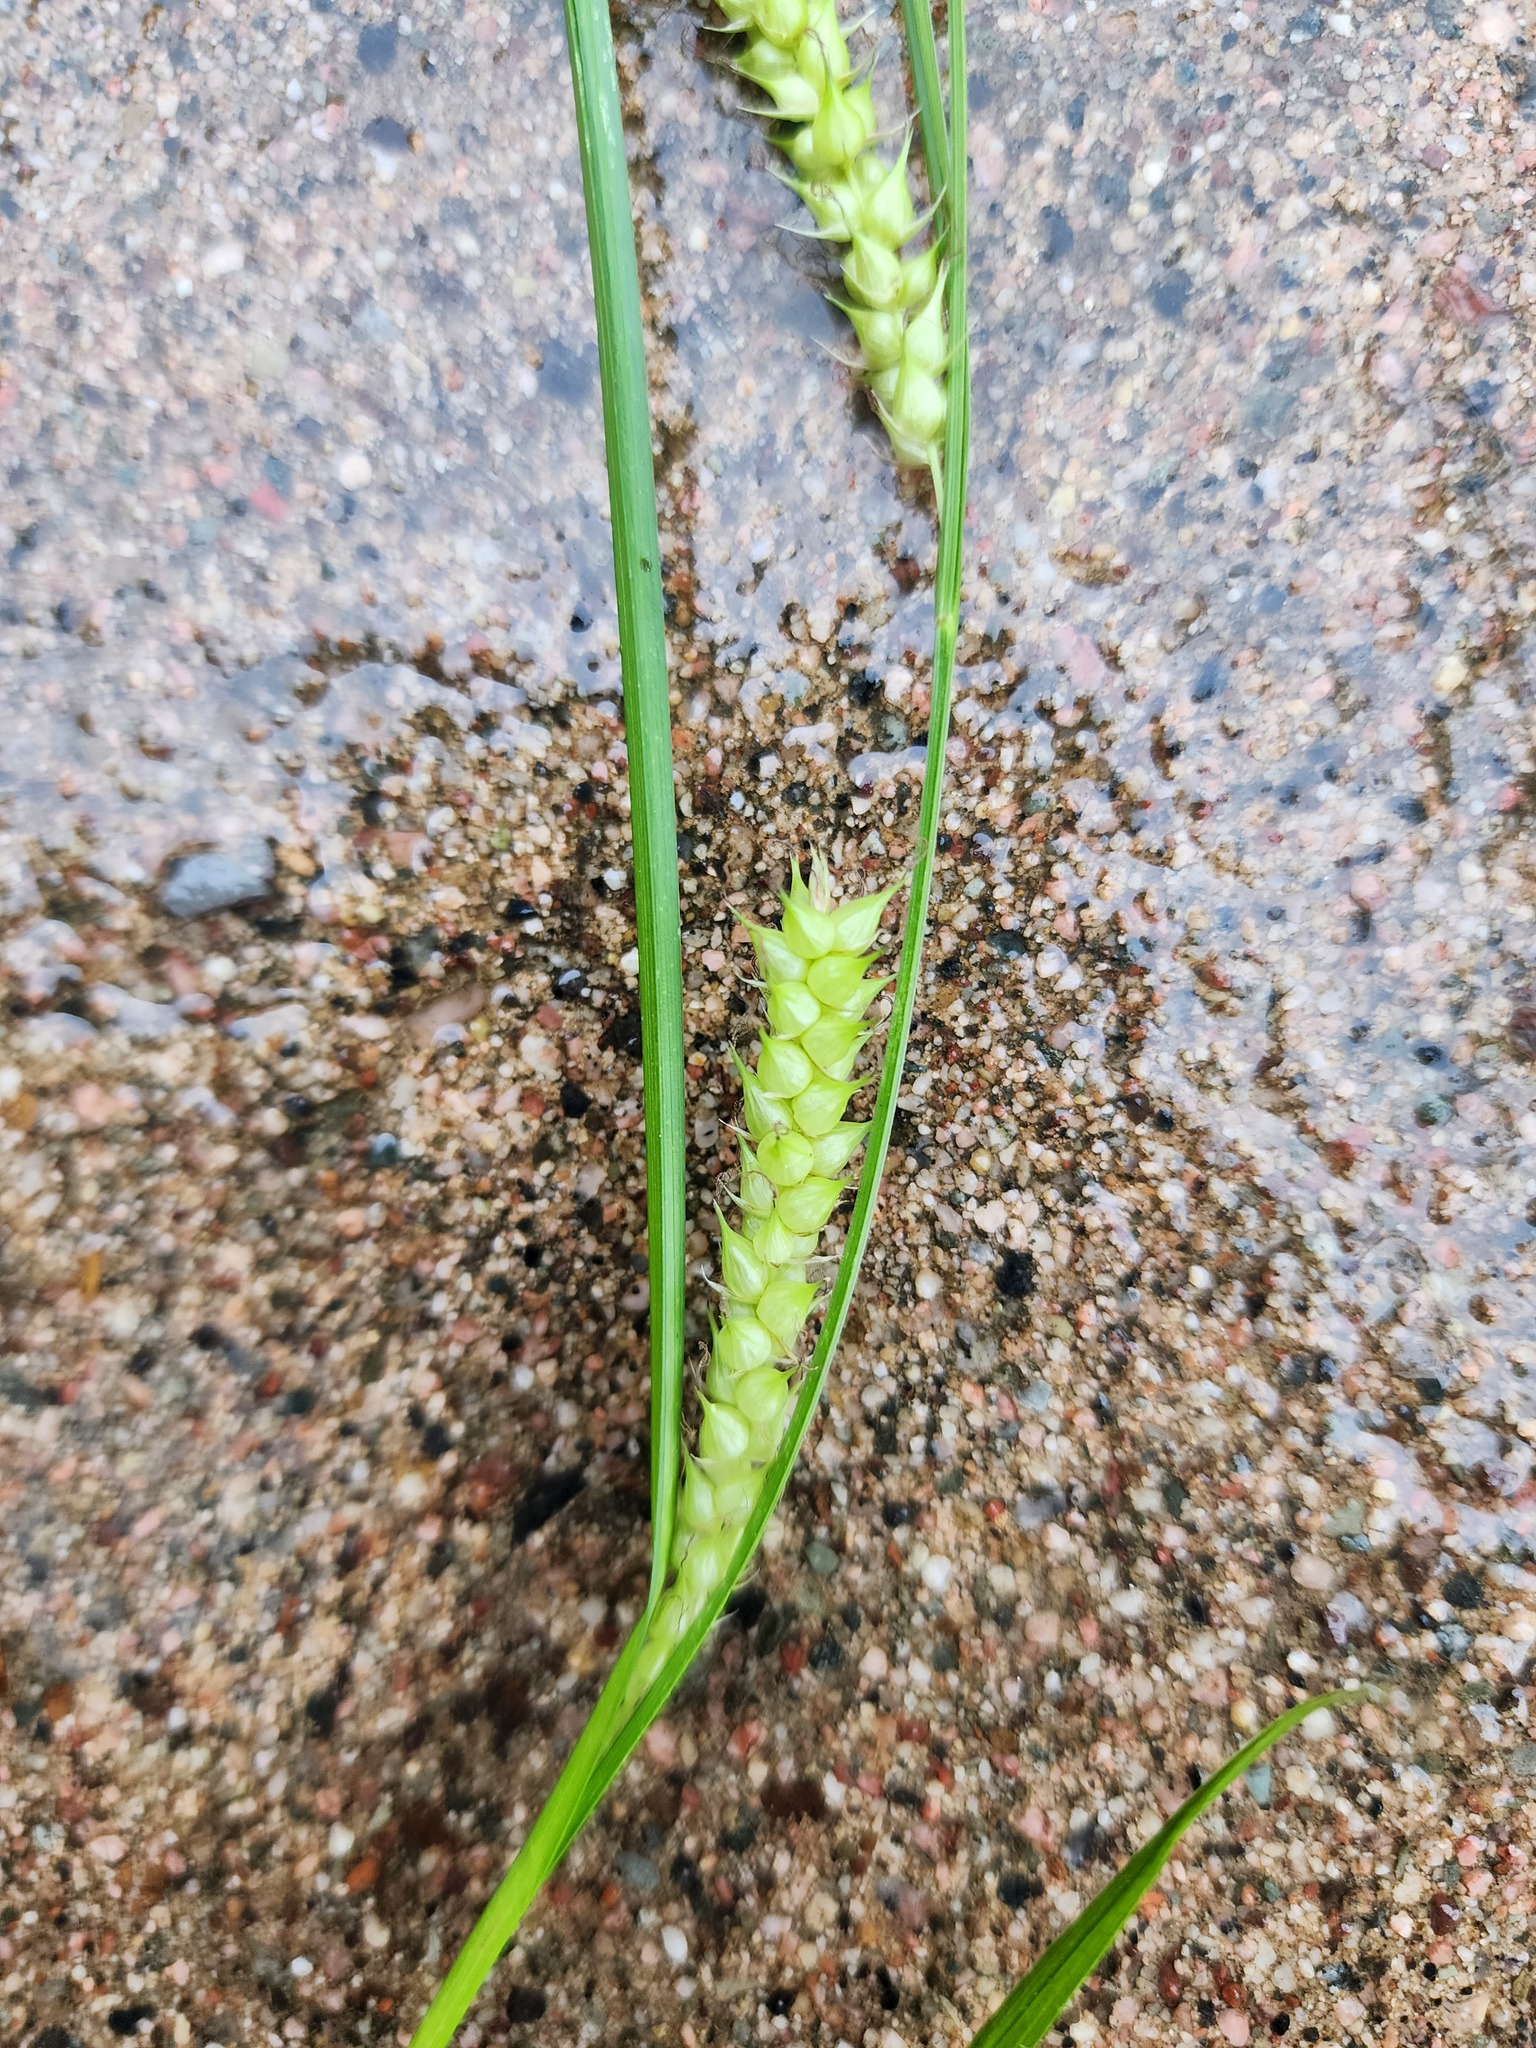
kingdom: Plantae
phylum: Tracheophyta
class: Liliopsida
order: Poales
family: Cyperaceae
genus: Carex
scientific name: Carex vesicaria
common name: Bladder-sedge
